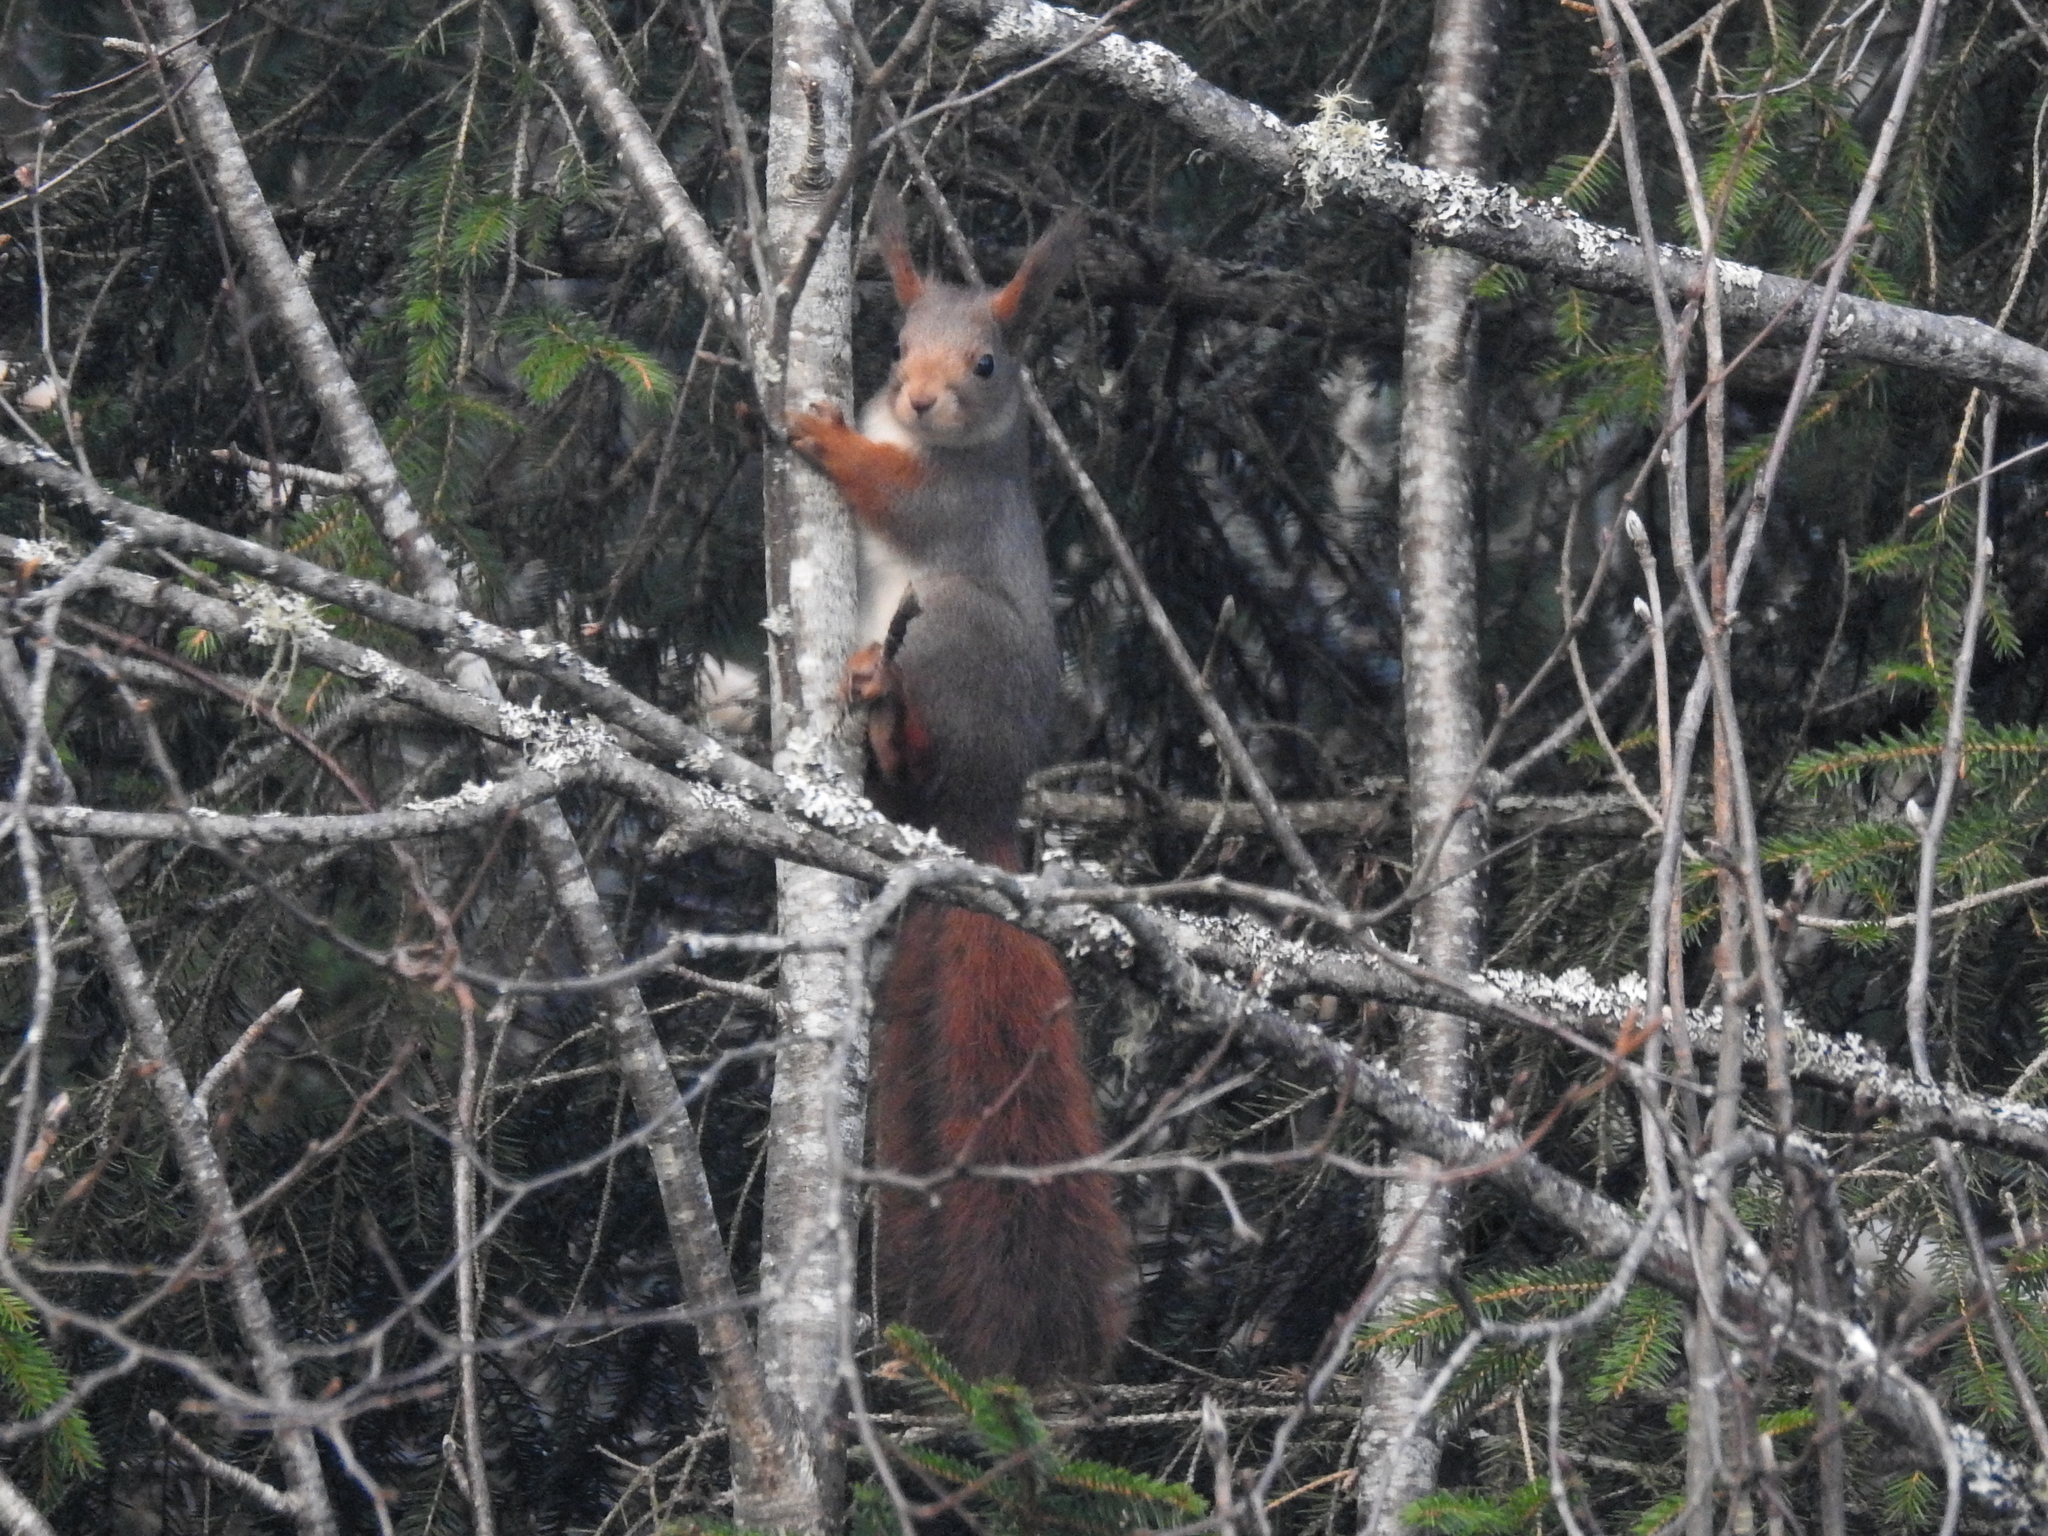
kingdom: Animalia
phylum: Chordata
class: Mammalia
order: Rodentia
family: Sciuridae
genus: Sciurus
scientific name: Sciurus vulgaris
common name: Eurasian red squirrel
